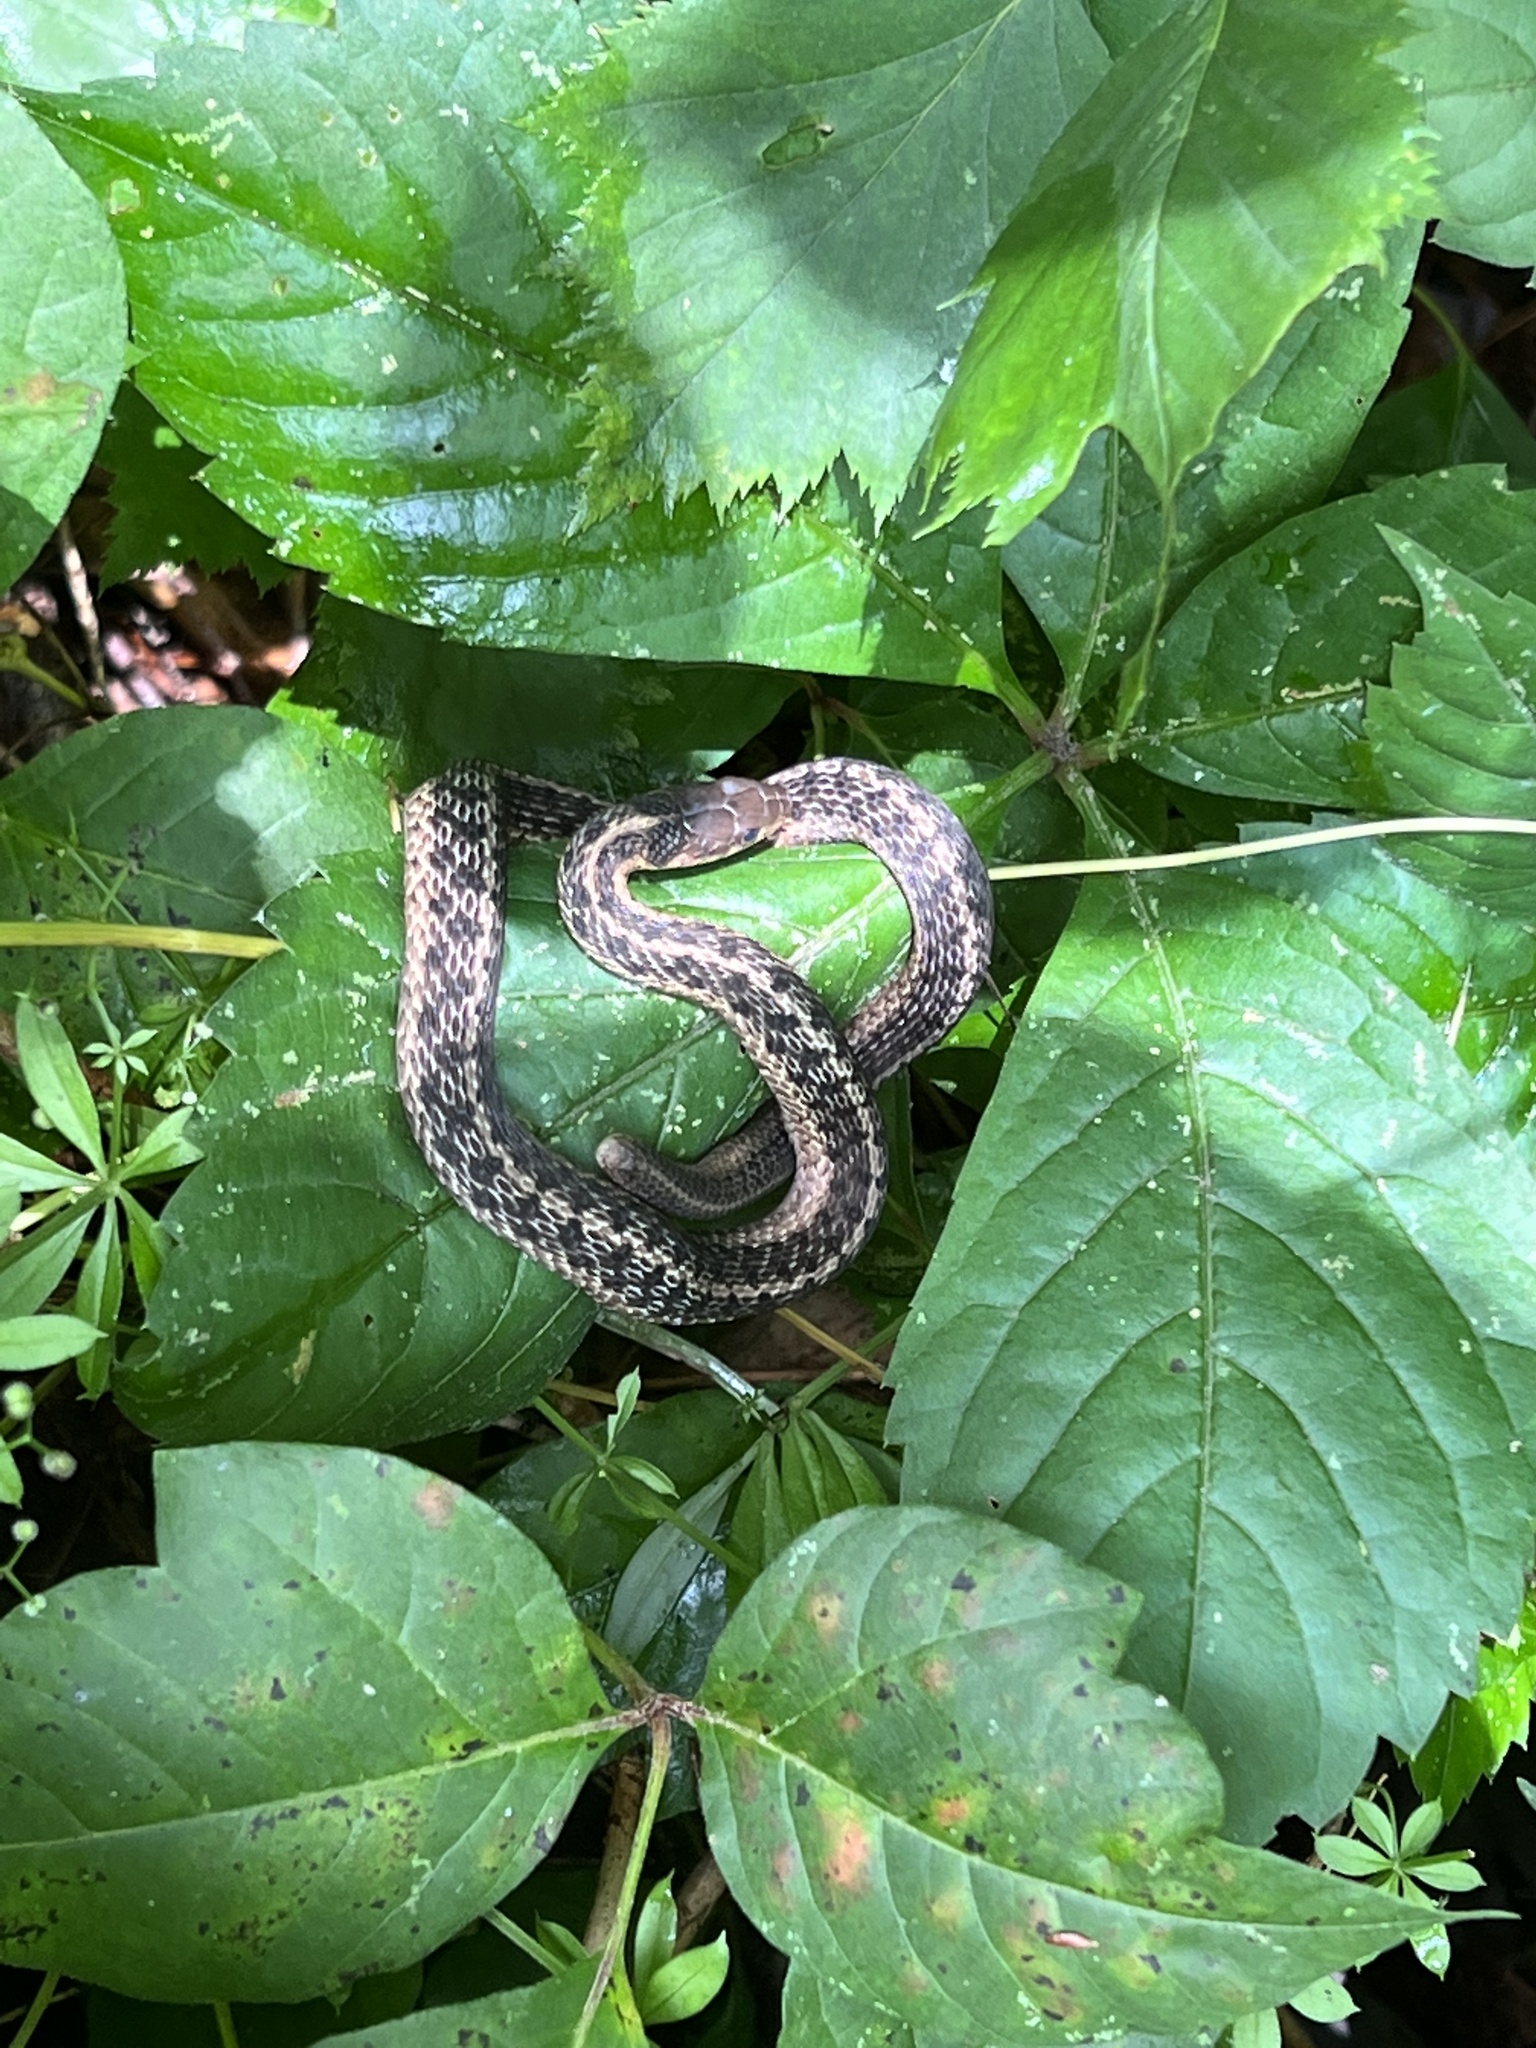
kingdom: Animalia
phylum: Chordata
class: Squamata
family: Colubridae
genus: Thamnophis
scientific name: Thamnophis sirtalis
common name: Common garter snake
